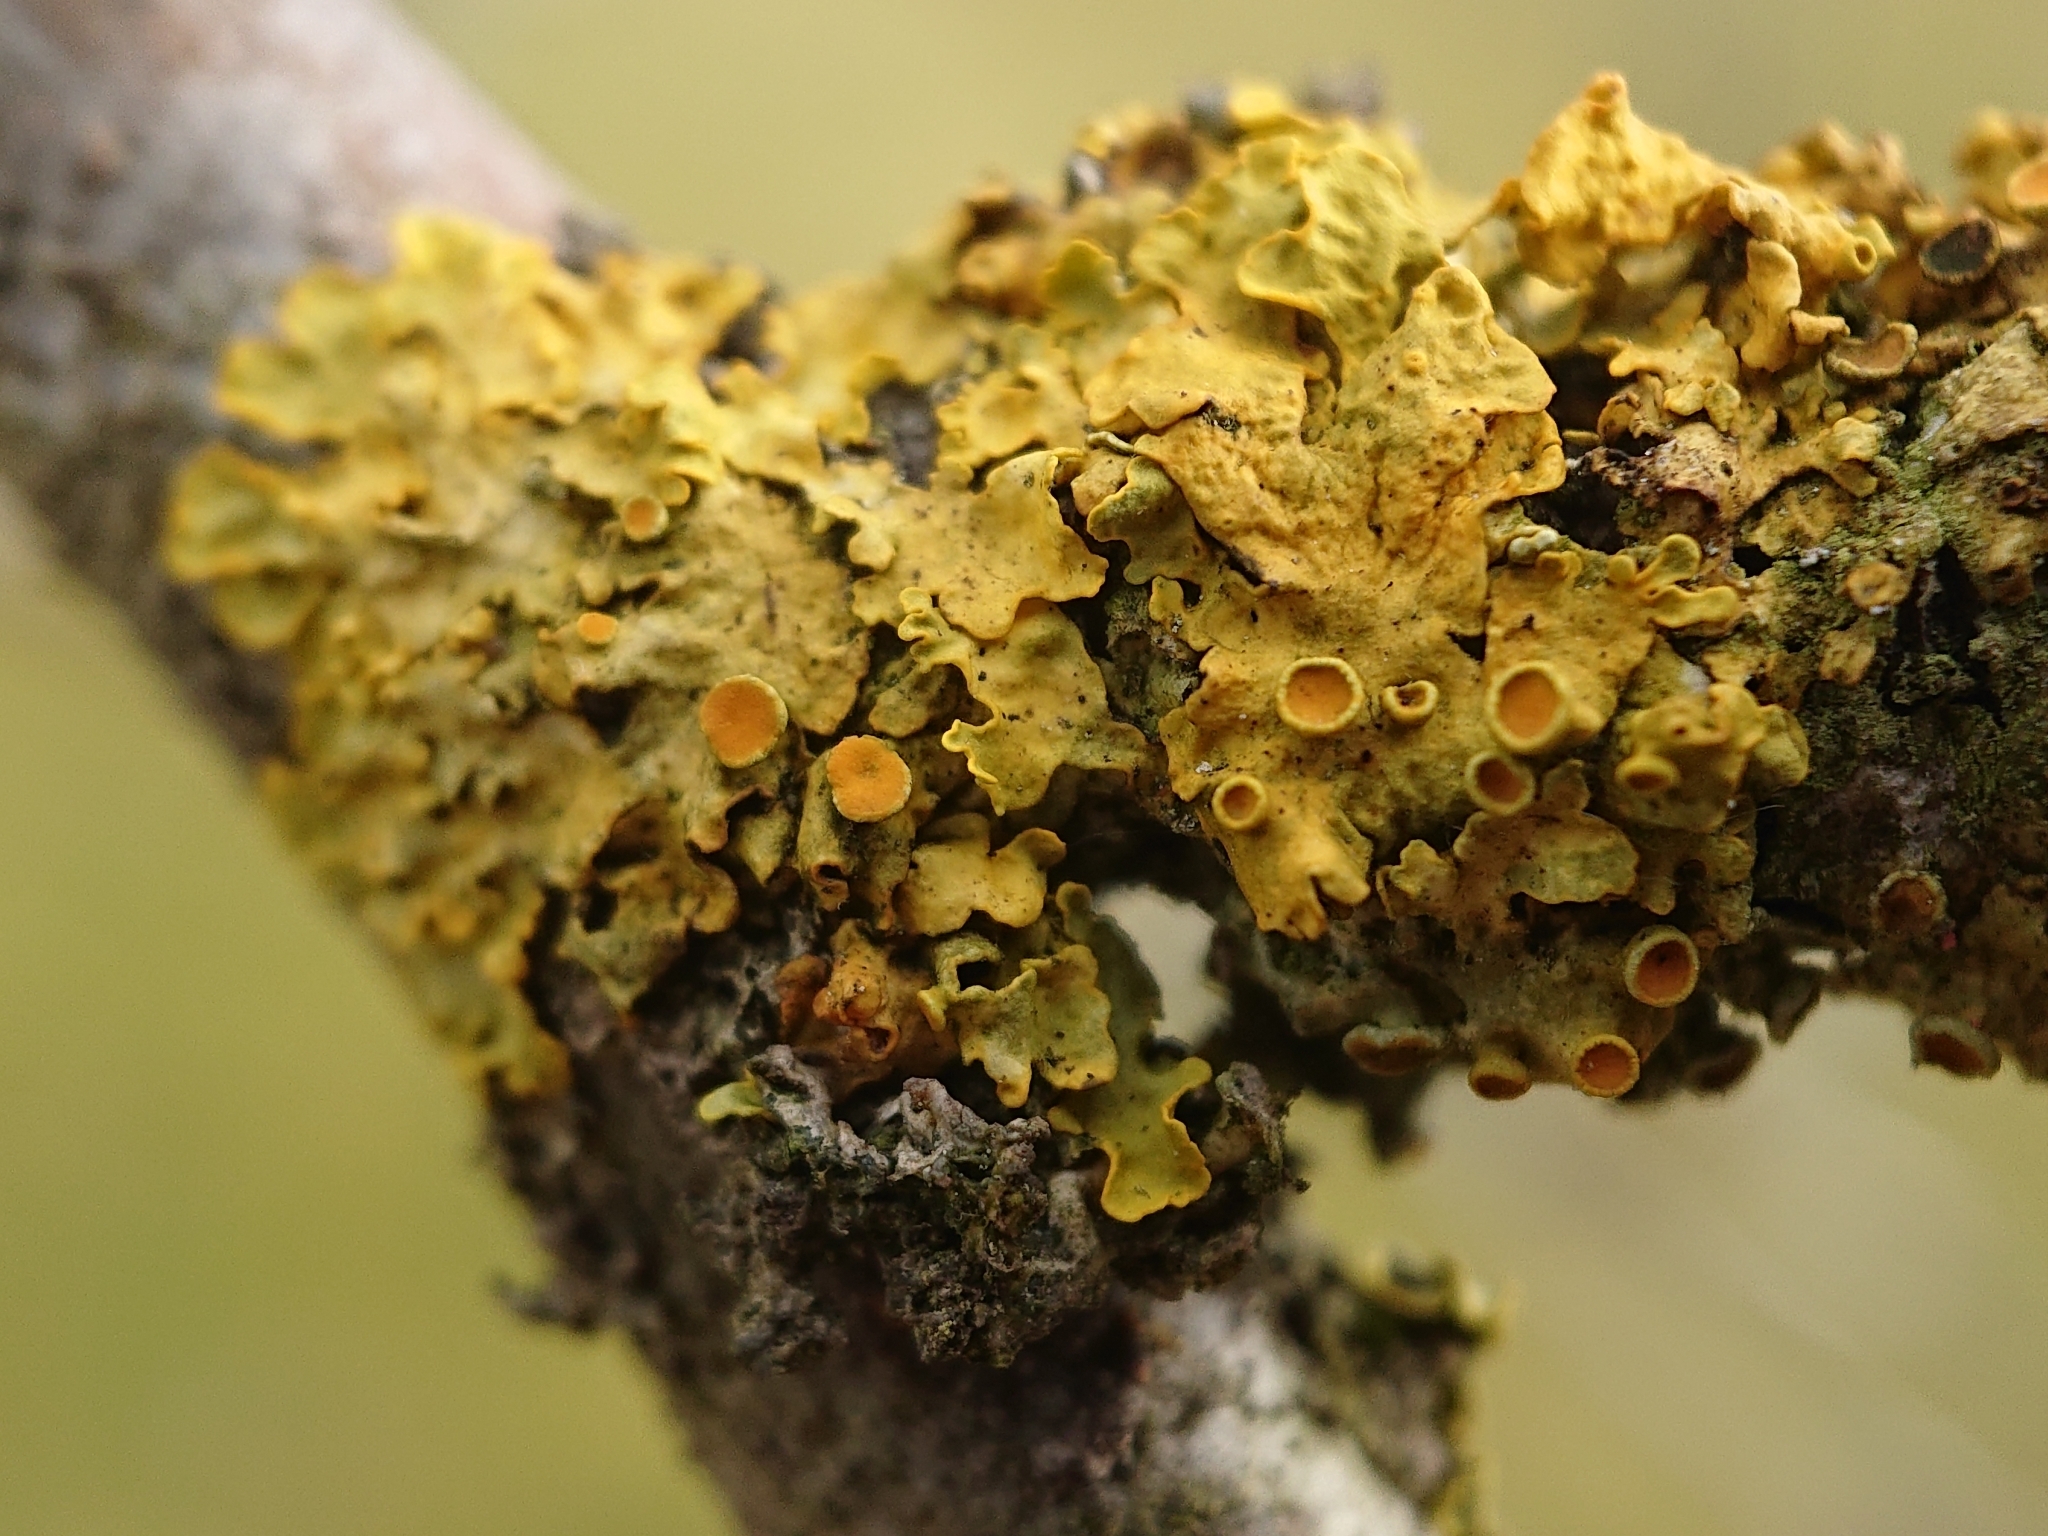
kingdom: Fungi
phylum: Ascomycota
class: Lecanoromycetes
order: Teloschistales
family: Teloschistaceae
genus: Xanthoria
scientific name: Xanthoria parietina
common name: Common orange lichen
